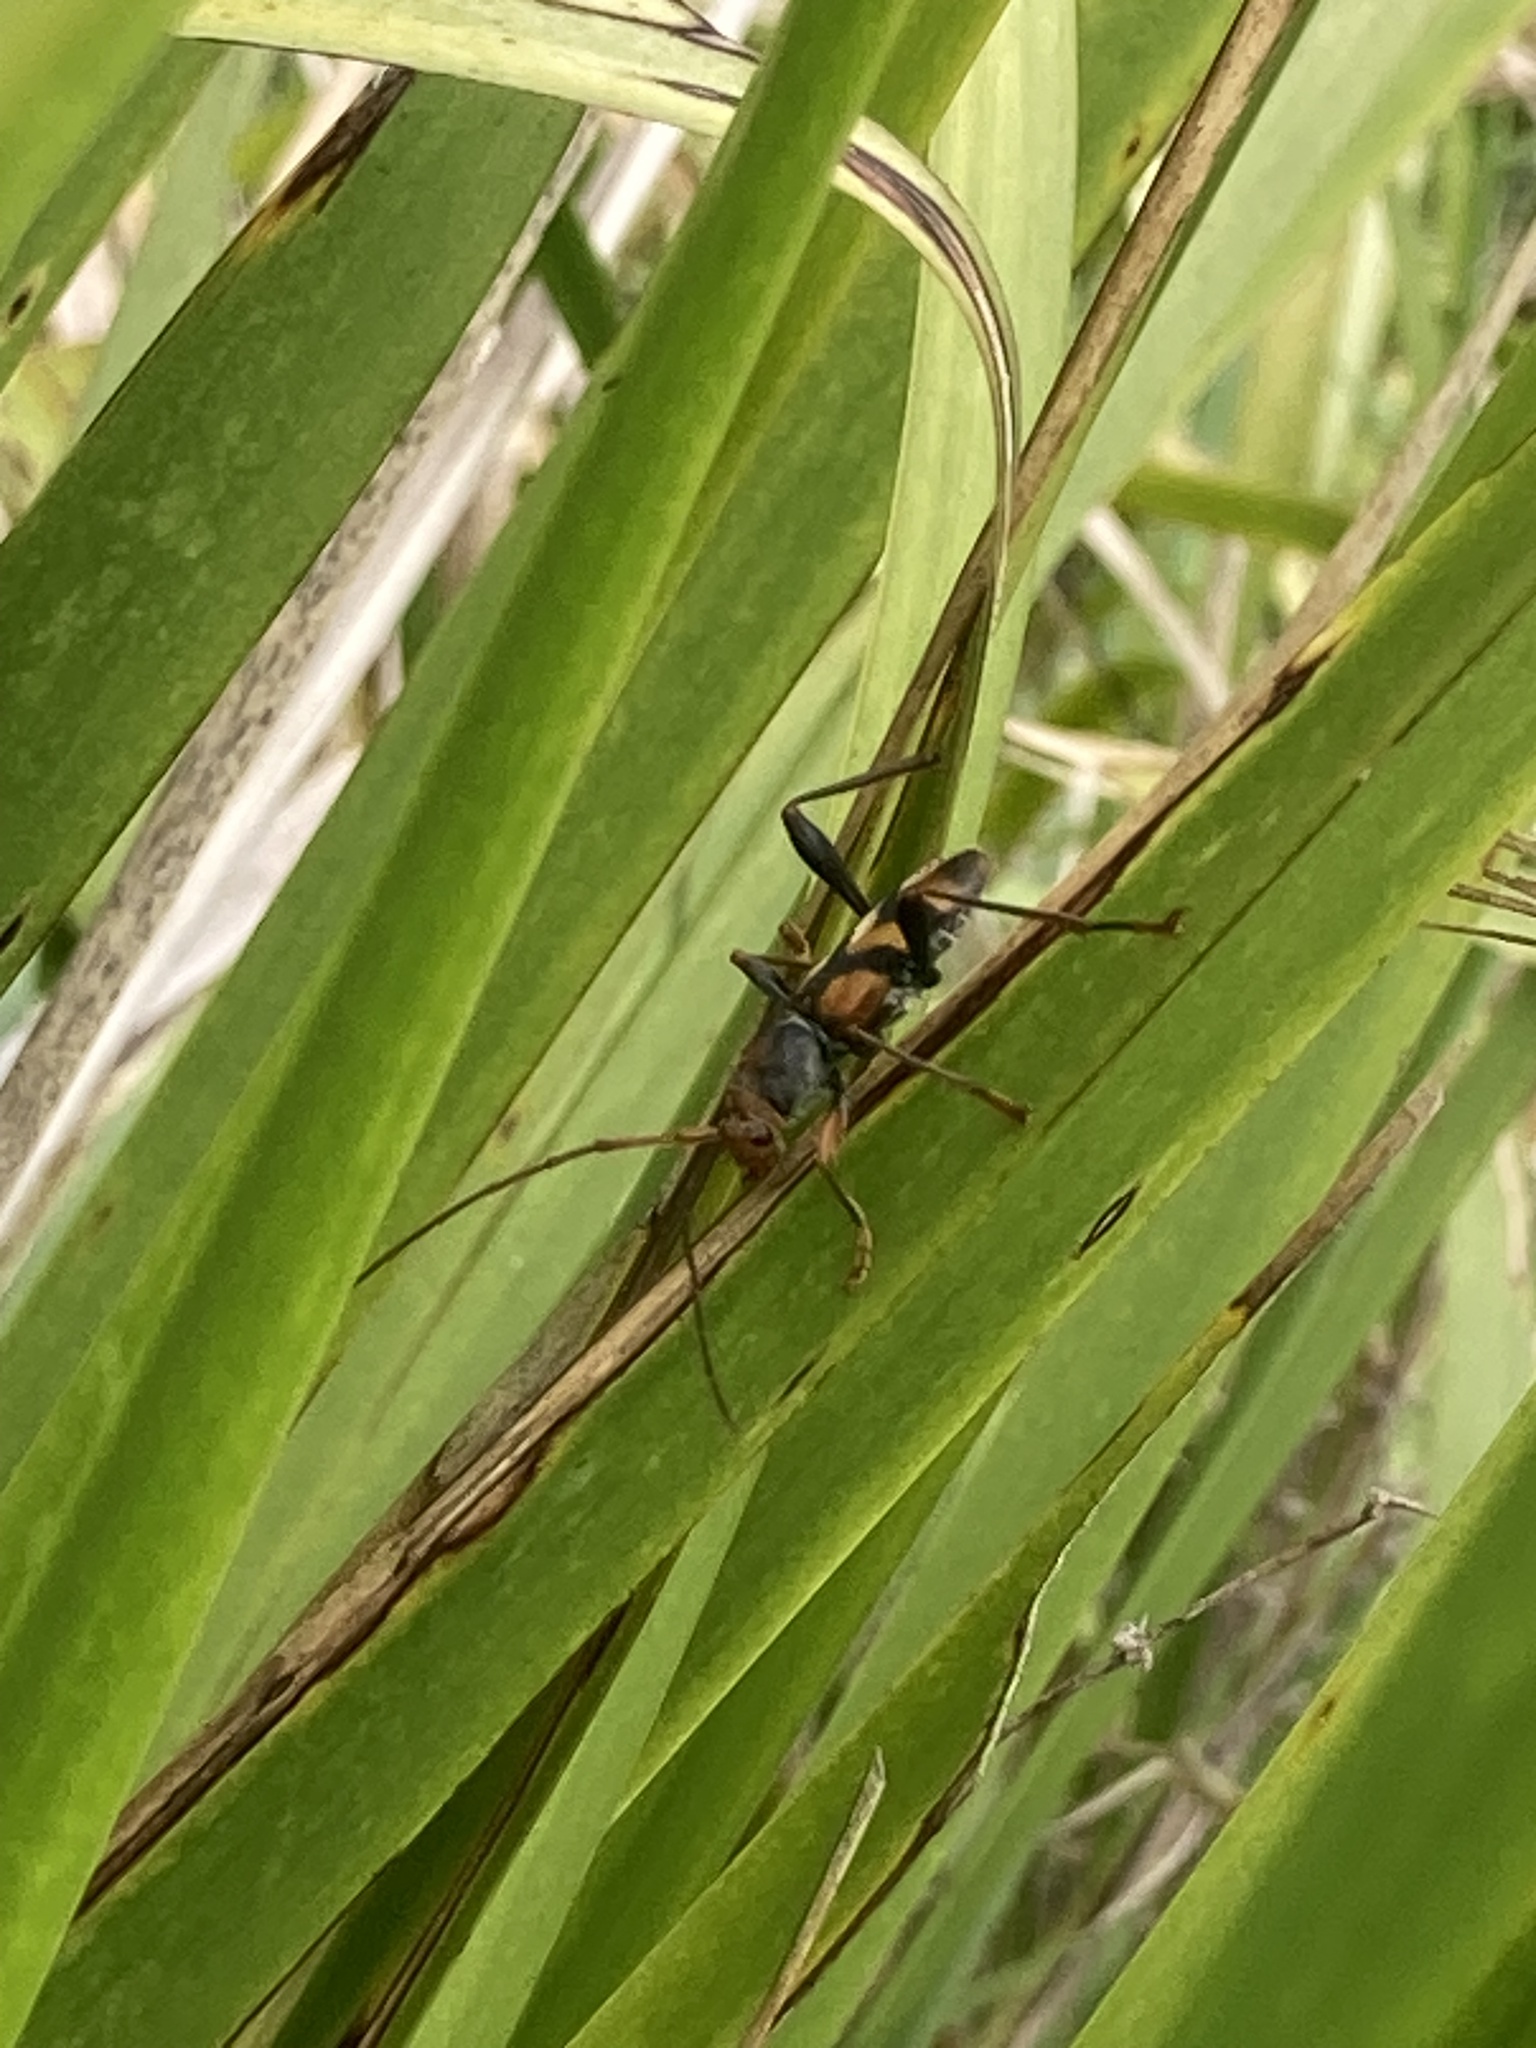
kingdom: Animalia
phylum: Arthropoda
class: Insecta
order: Coleoptera
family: Cerambycidae
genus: Aridaeus
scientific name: Aridaeus thoracicus
